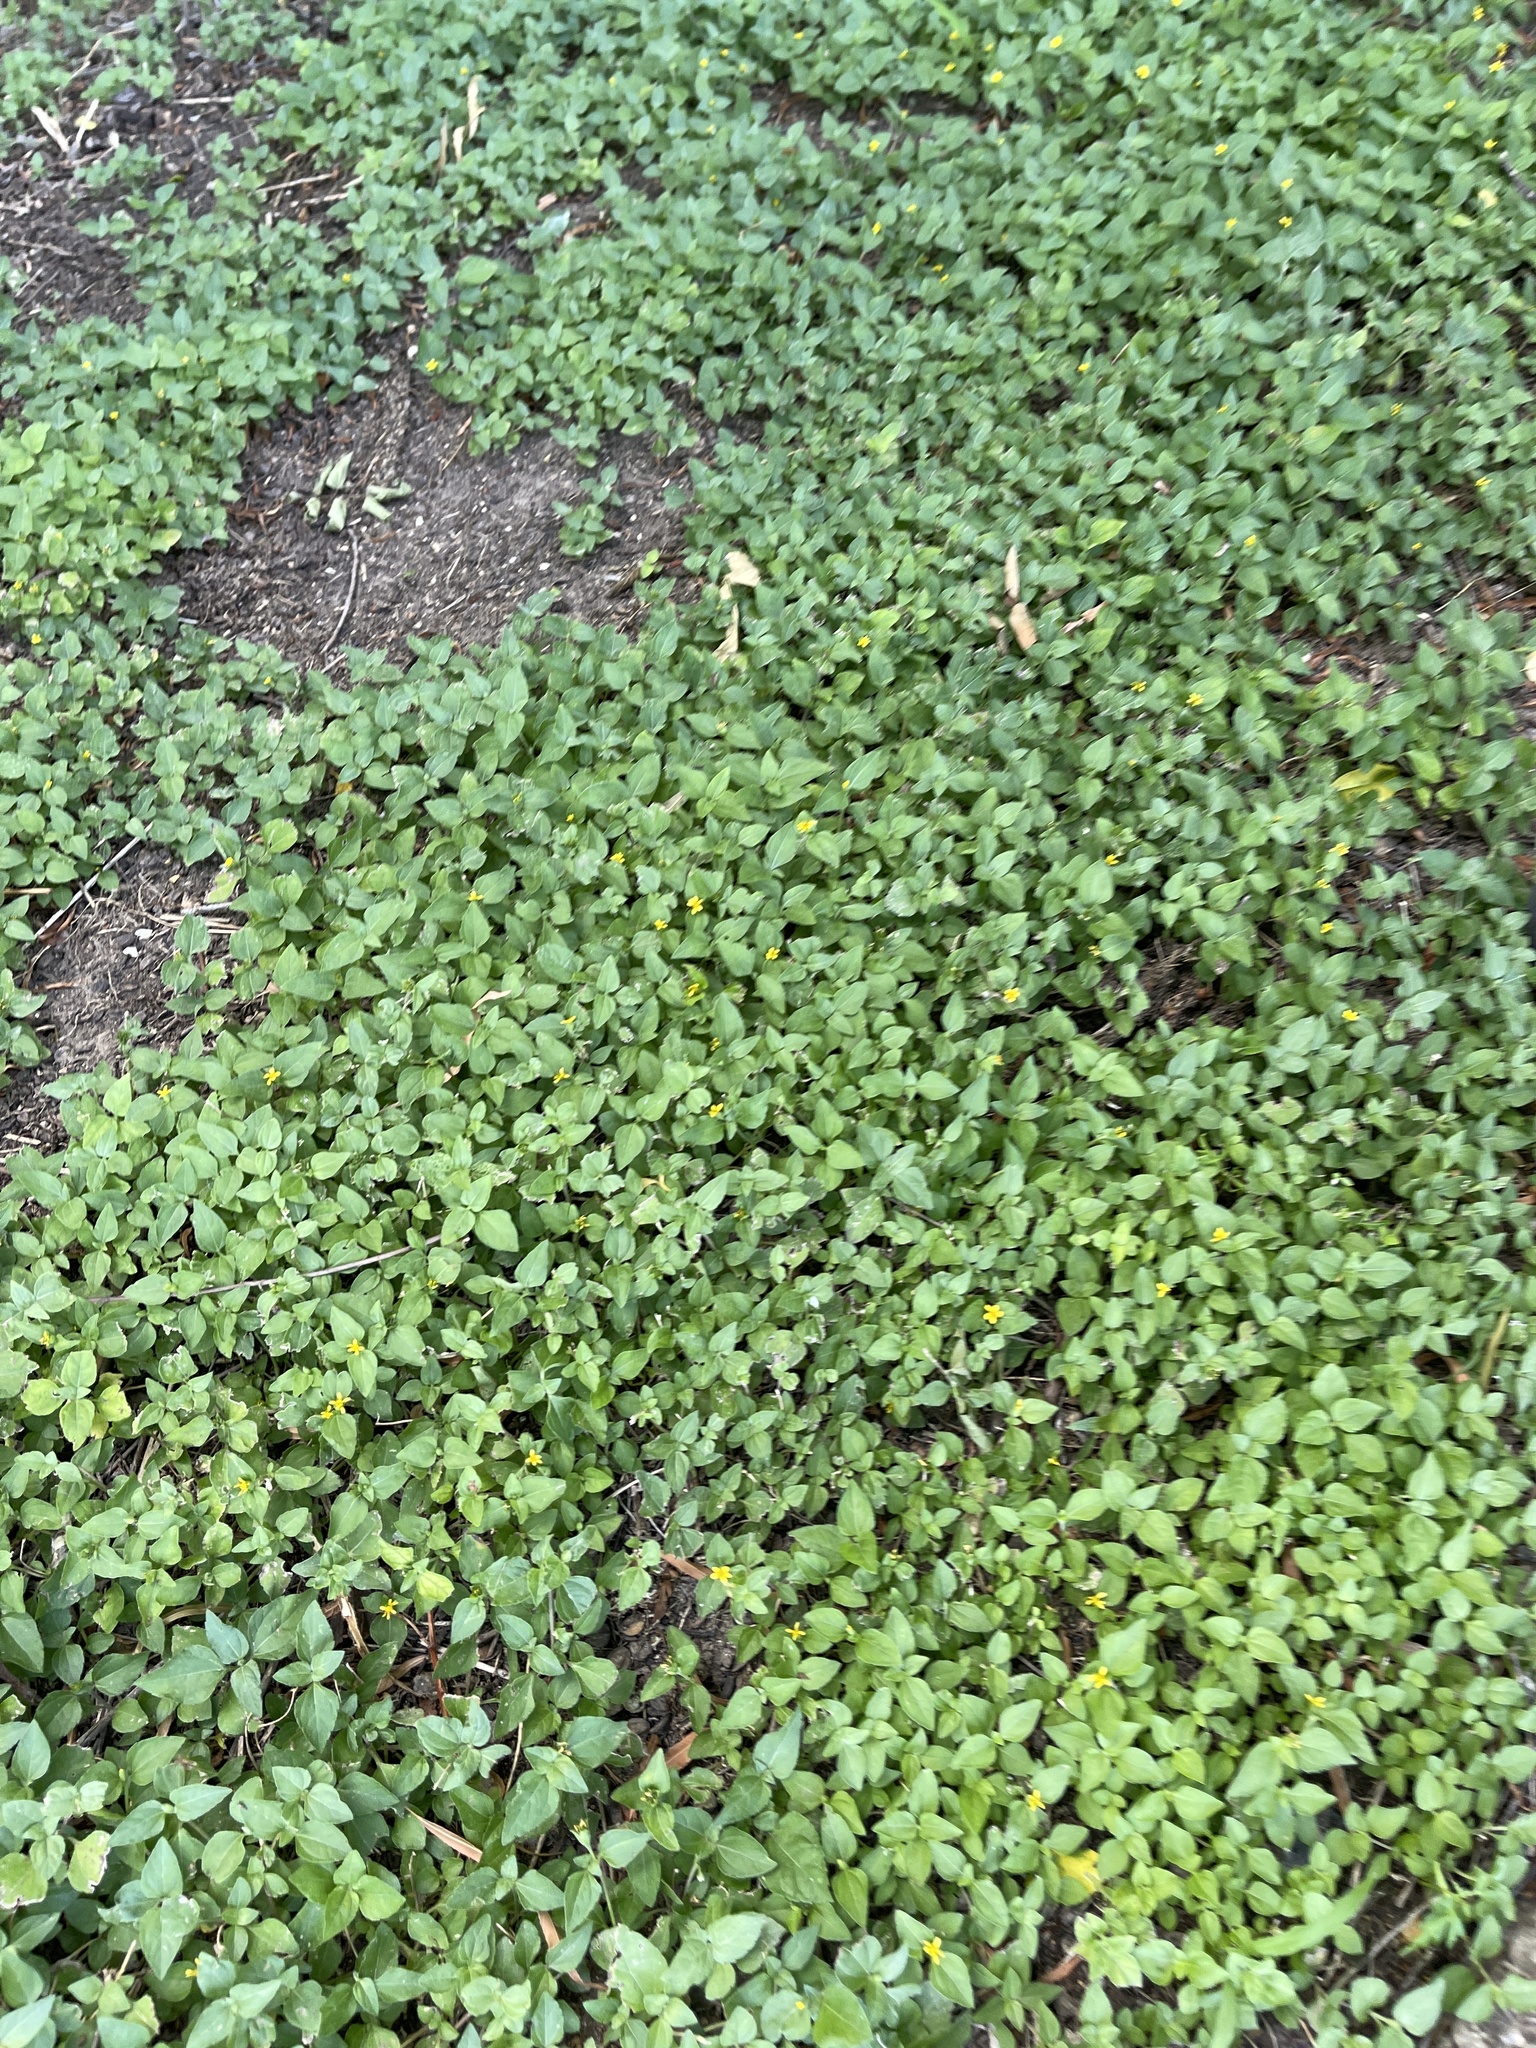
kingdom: Plantae
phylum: Tracheophyta
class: Magnoliopsida
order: Asterales
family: Asteraceae
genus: Calyptocarpus
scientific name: Calyptocarpus vialis
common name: Straggler daisy
